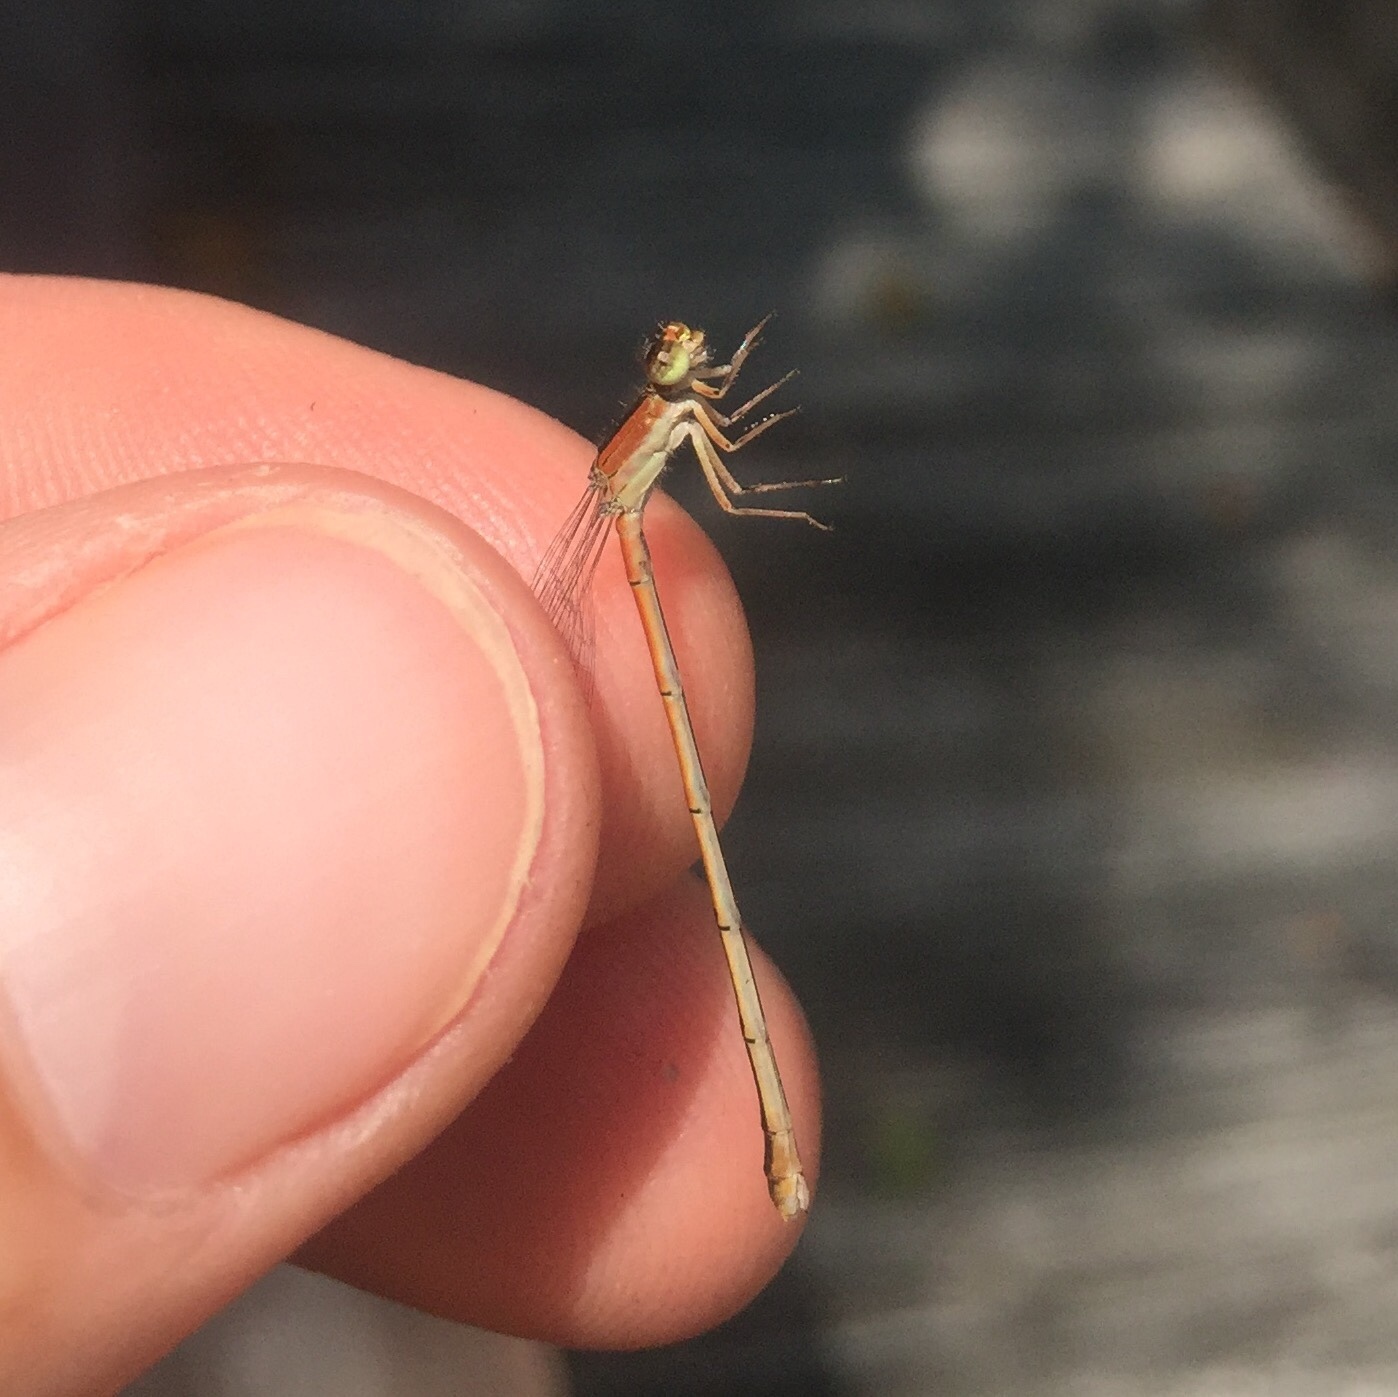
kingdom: Animalia
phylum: Arthropoda
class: Insecta
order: Odonata
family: Coenagrionidae
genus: Ischnura
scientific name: Ischnura hastata
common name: Citrine forktail
